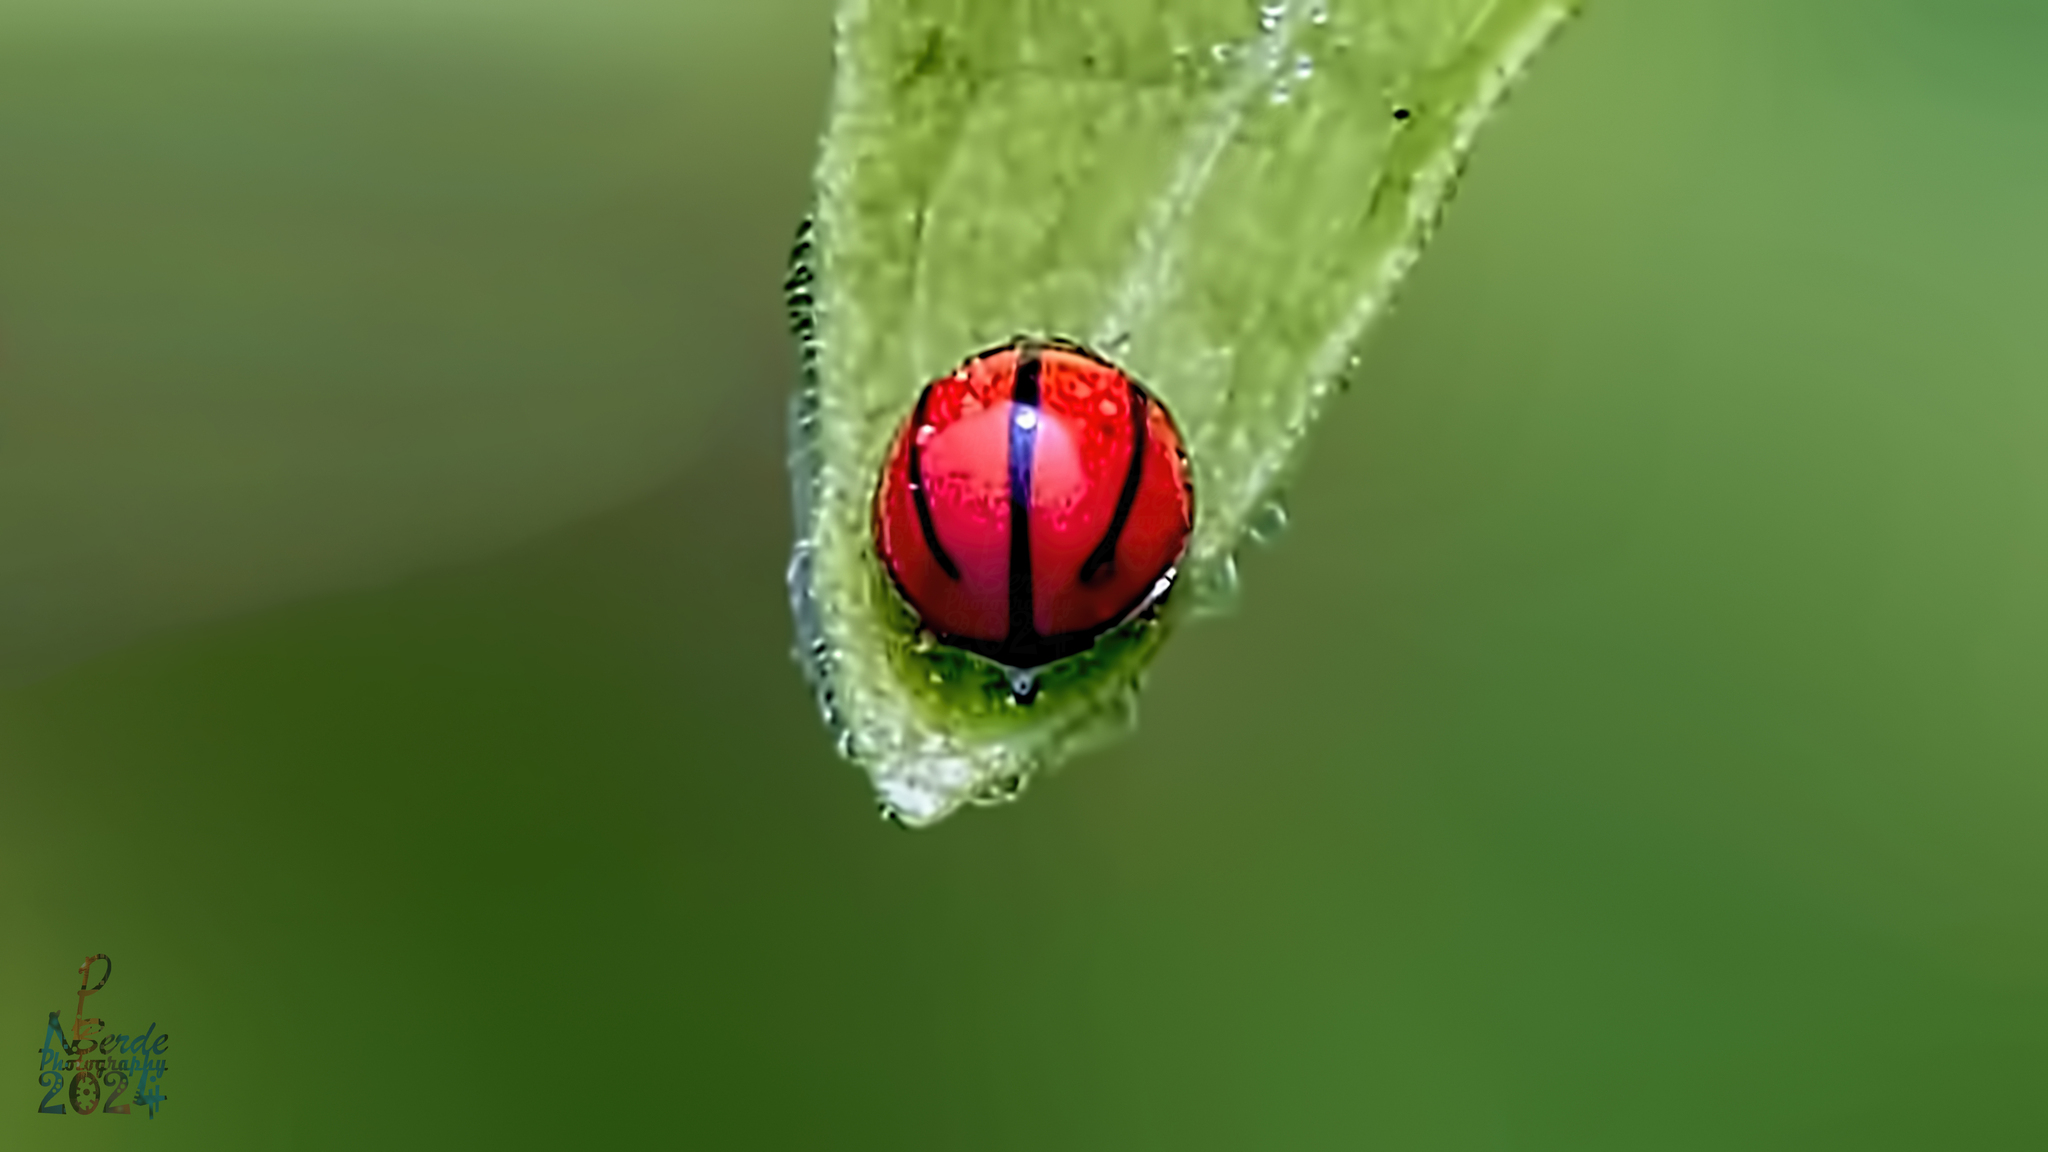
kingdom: Animalia
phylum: Arthropoda
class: Insecta
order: Coleoptera
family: Coccinellidae
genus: Micraspis
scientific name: Micraspis
